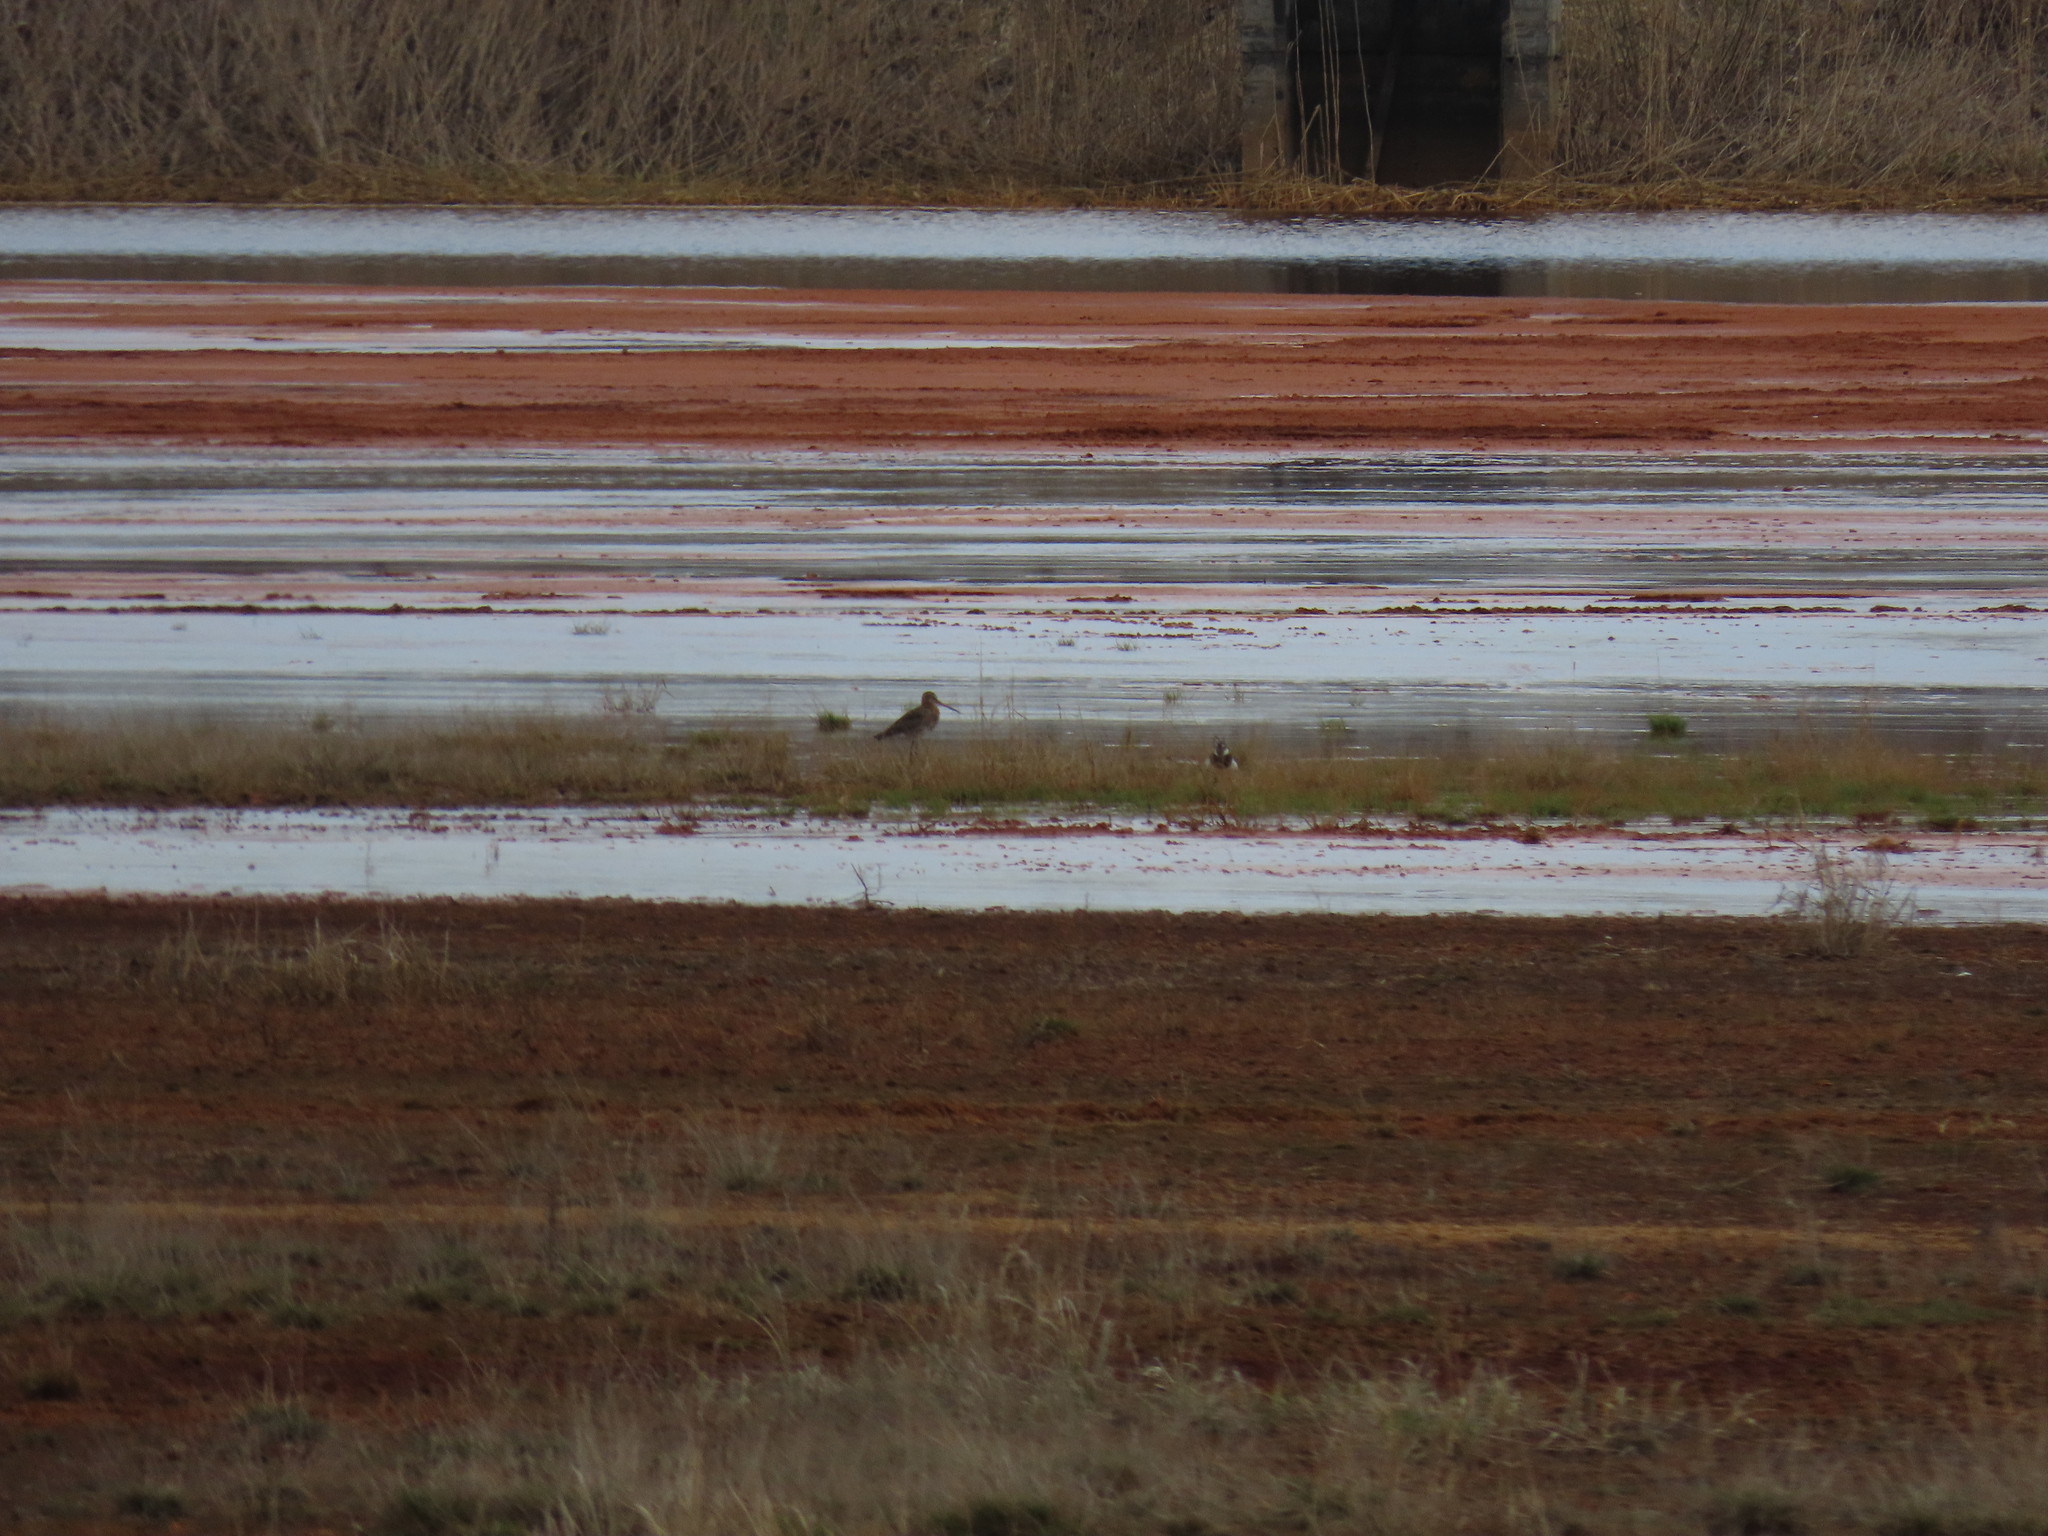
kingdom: Animalia
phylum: Chordata
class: Aves
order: Charadriiformes
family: Scolopacidae
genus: Limosa
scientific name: Limosa limosa
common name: Black-tailed godwit
